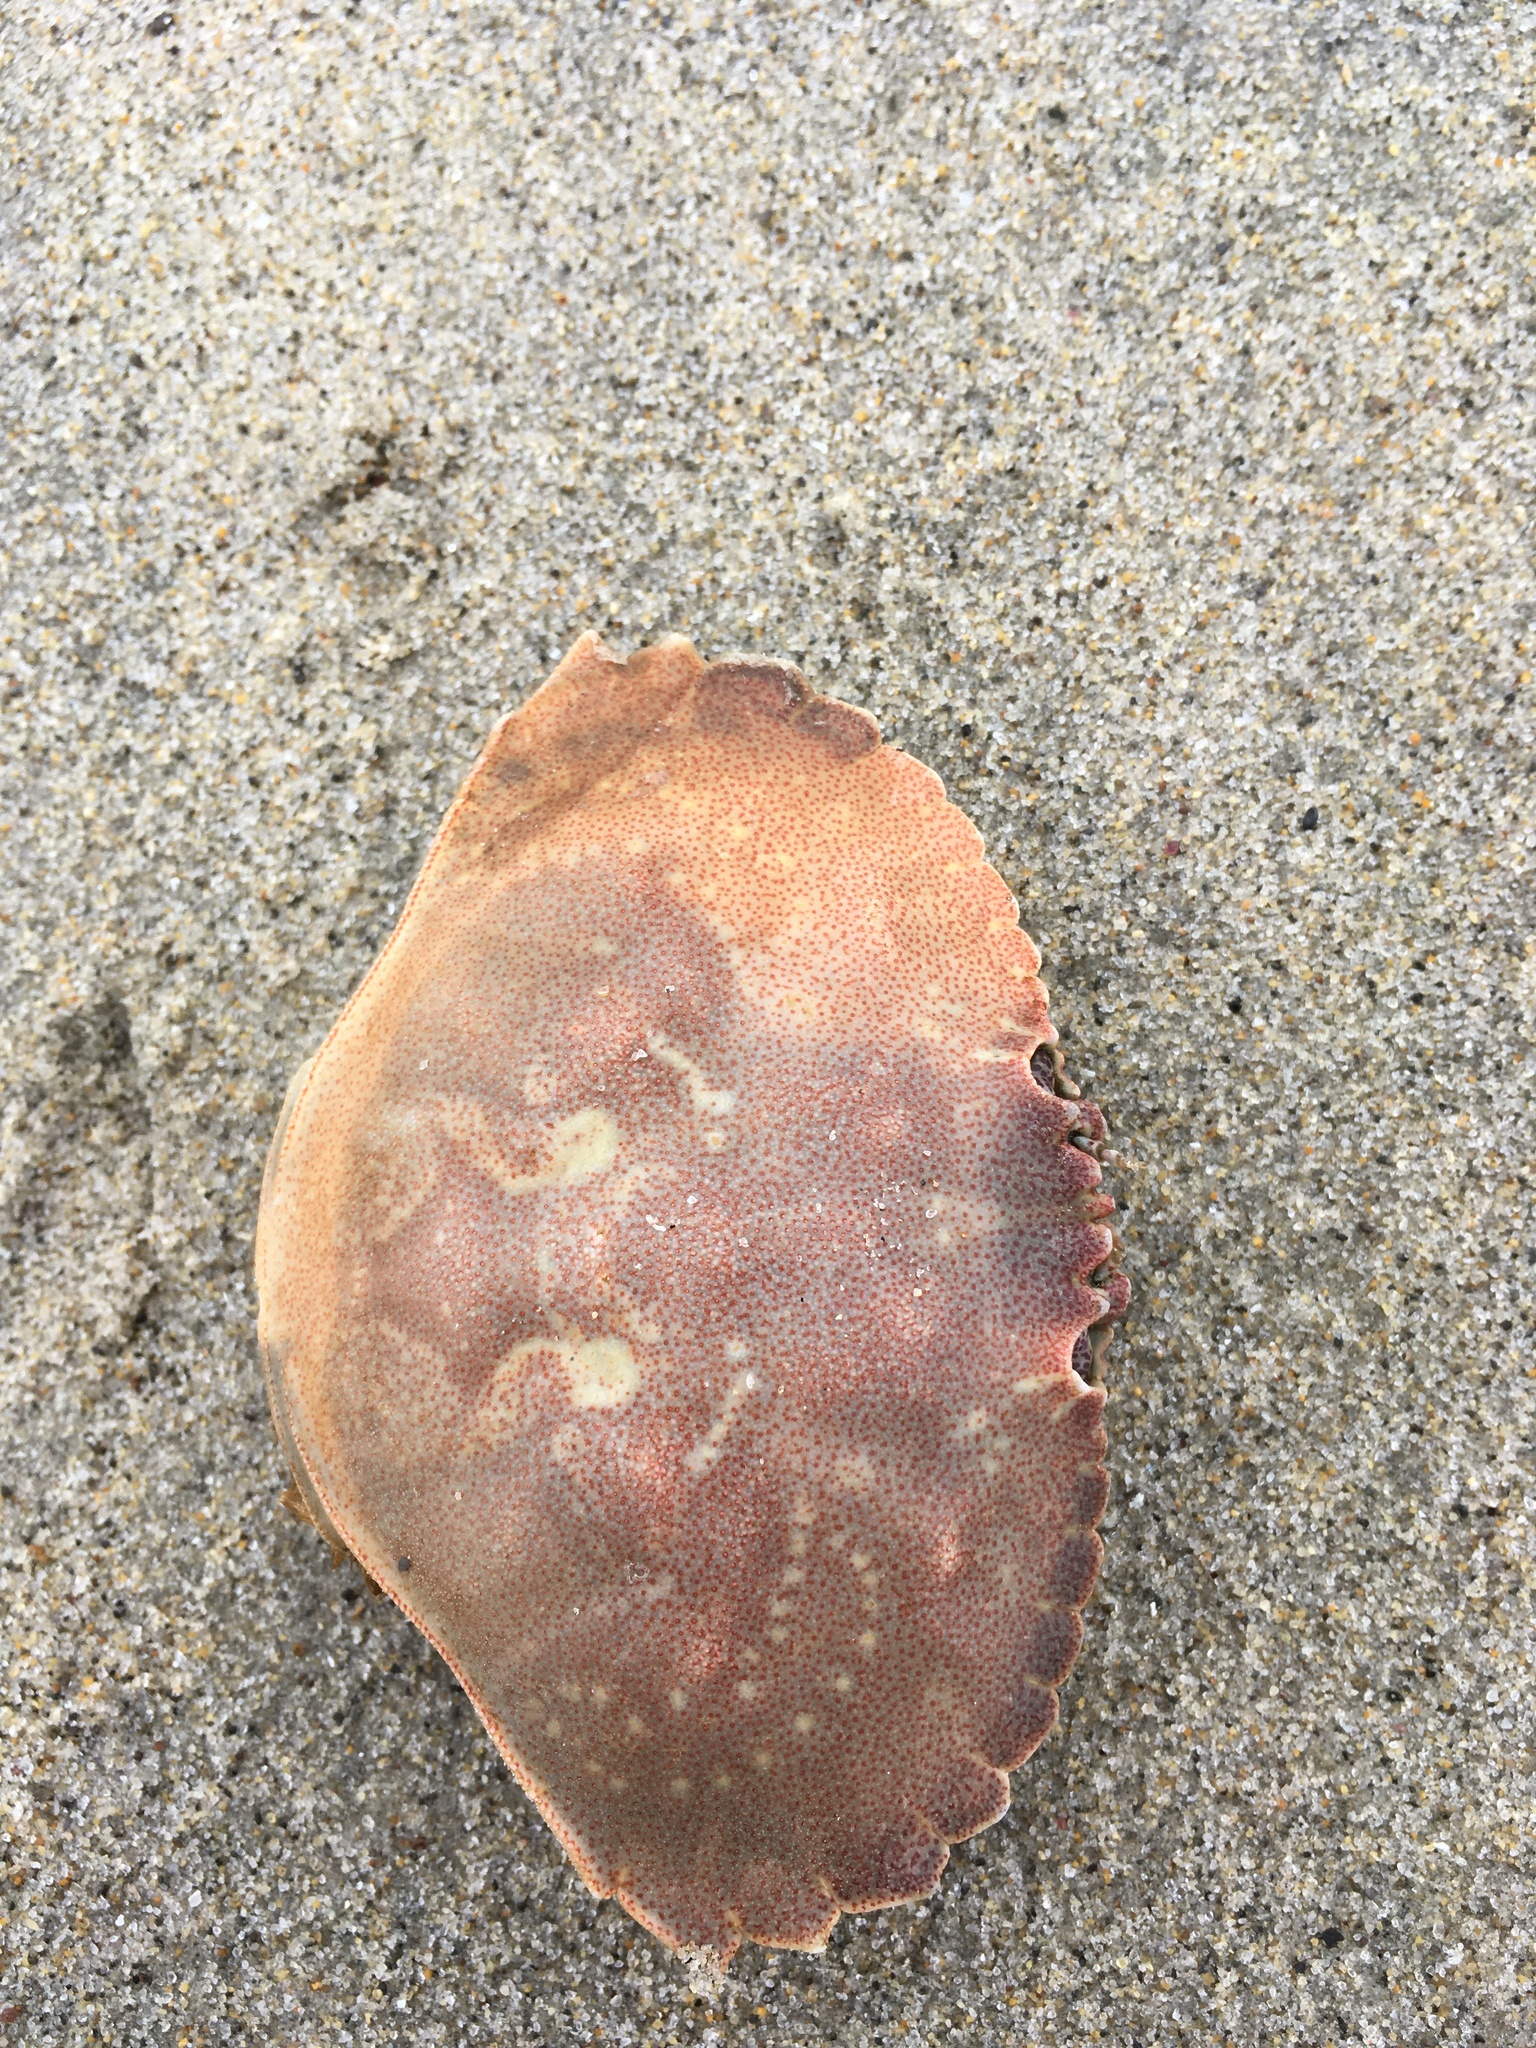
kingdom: Animalia
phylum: Arthropoda
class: Malacostraca
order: Decapoda
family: Cancridae
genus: Cancer
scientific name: Cancer irroratus
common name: Atlantic rock crab
